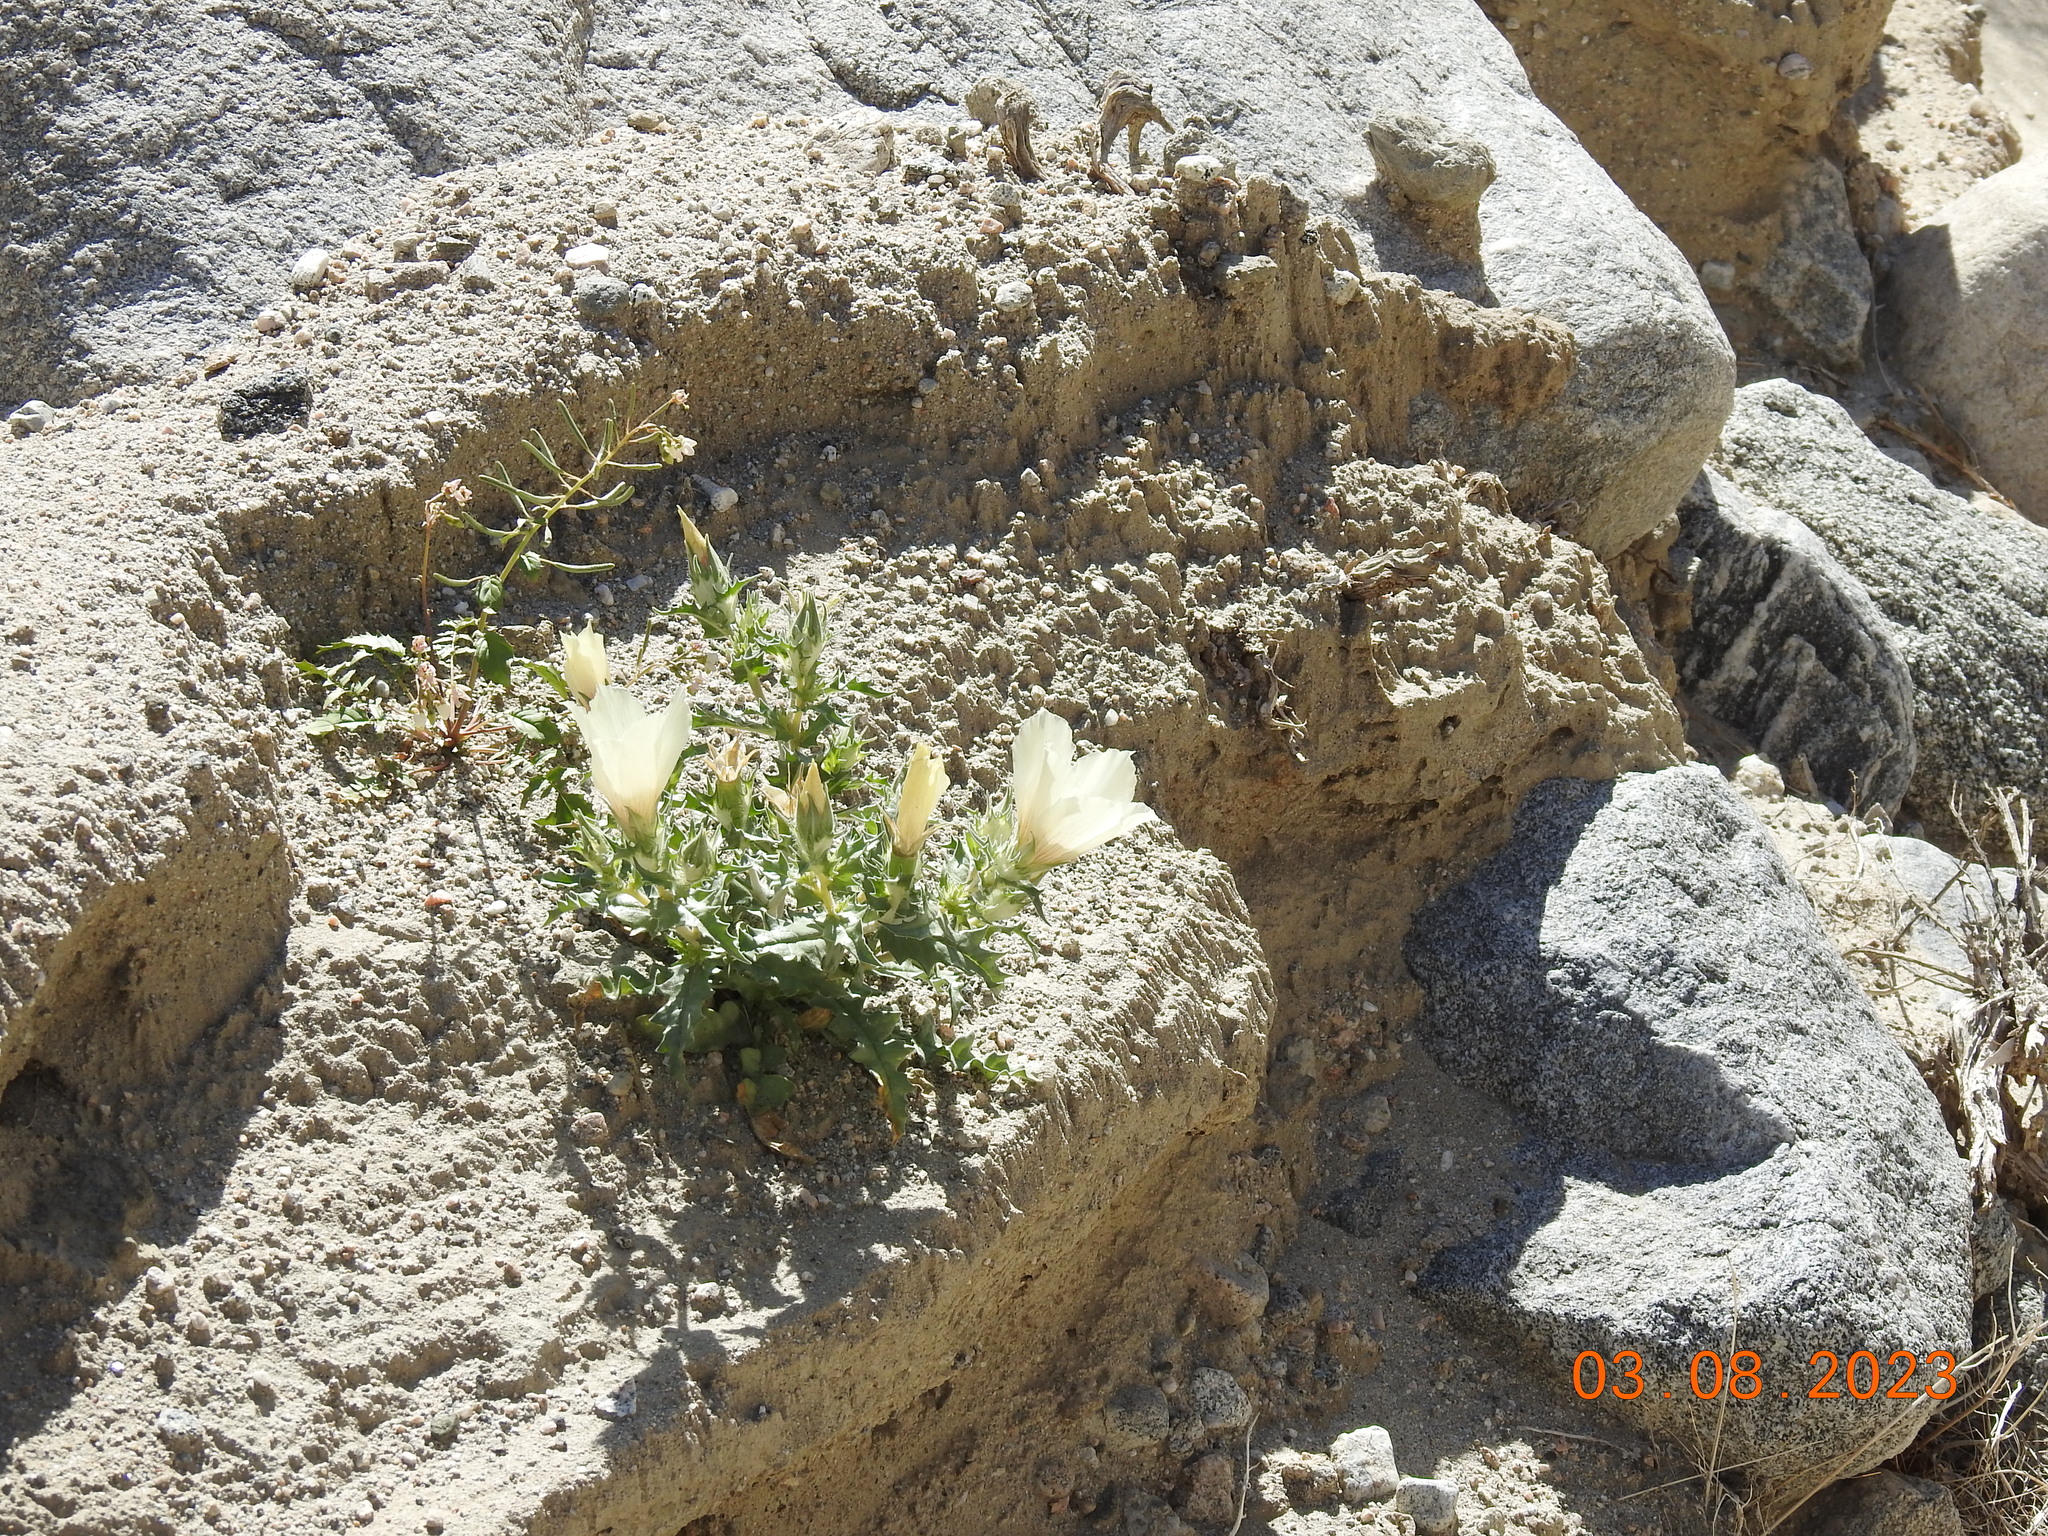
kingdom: Plantae
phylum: Tracheophyta
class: Magnoliopsida
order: Cornales
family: Loasaceae
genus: Mentzelia
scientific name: Mentzelia involucrata
